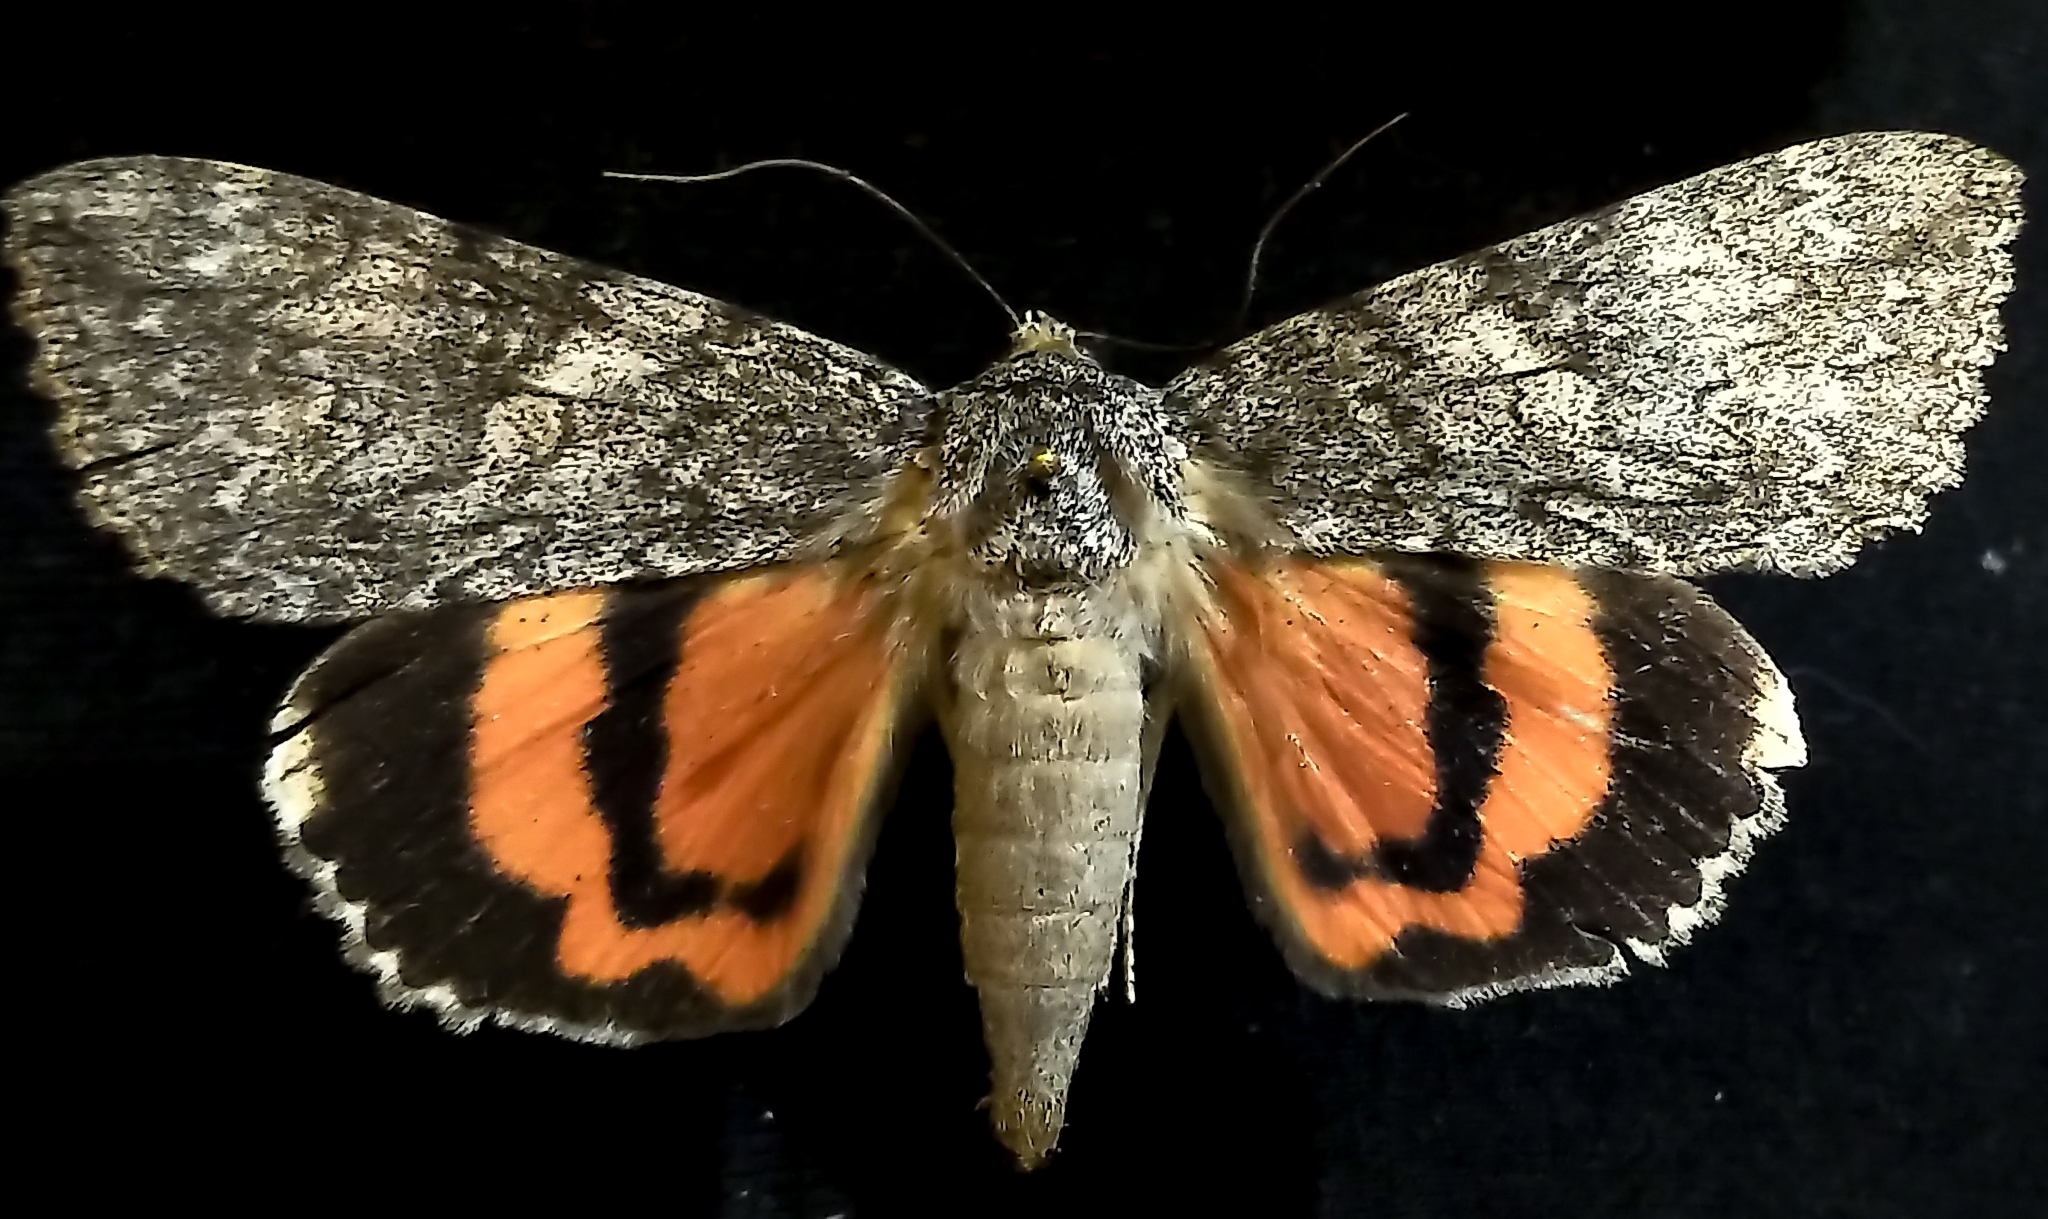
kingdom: Animalia
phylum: Arthropoda
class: Insecta
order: Lepidoptera
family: Erebidae
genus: Catocala
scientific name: Catocala meskei
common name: Meske's underwing moth
